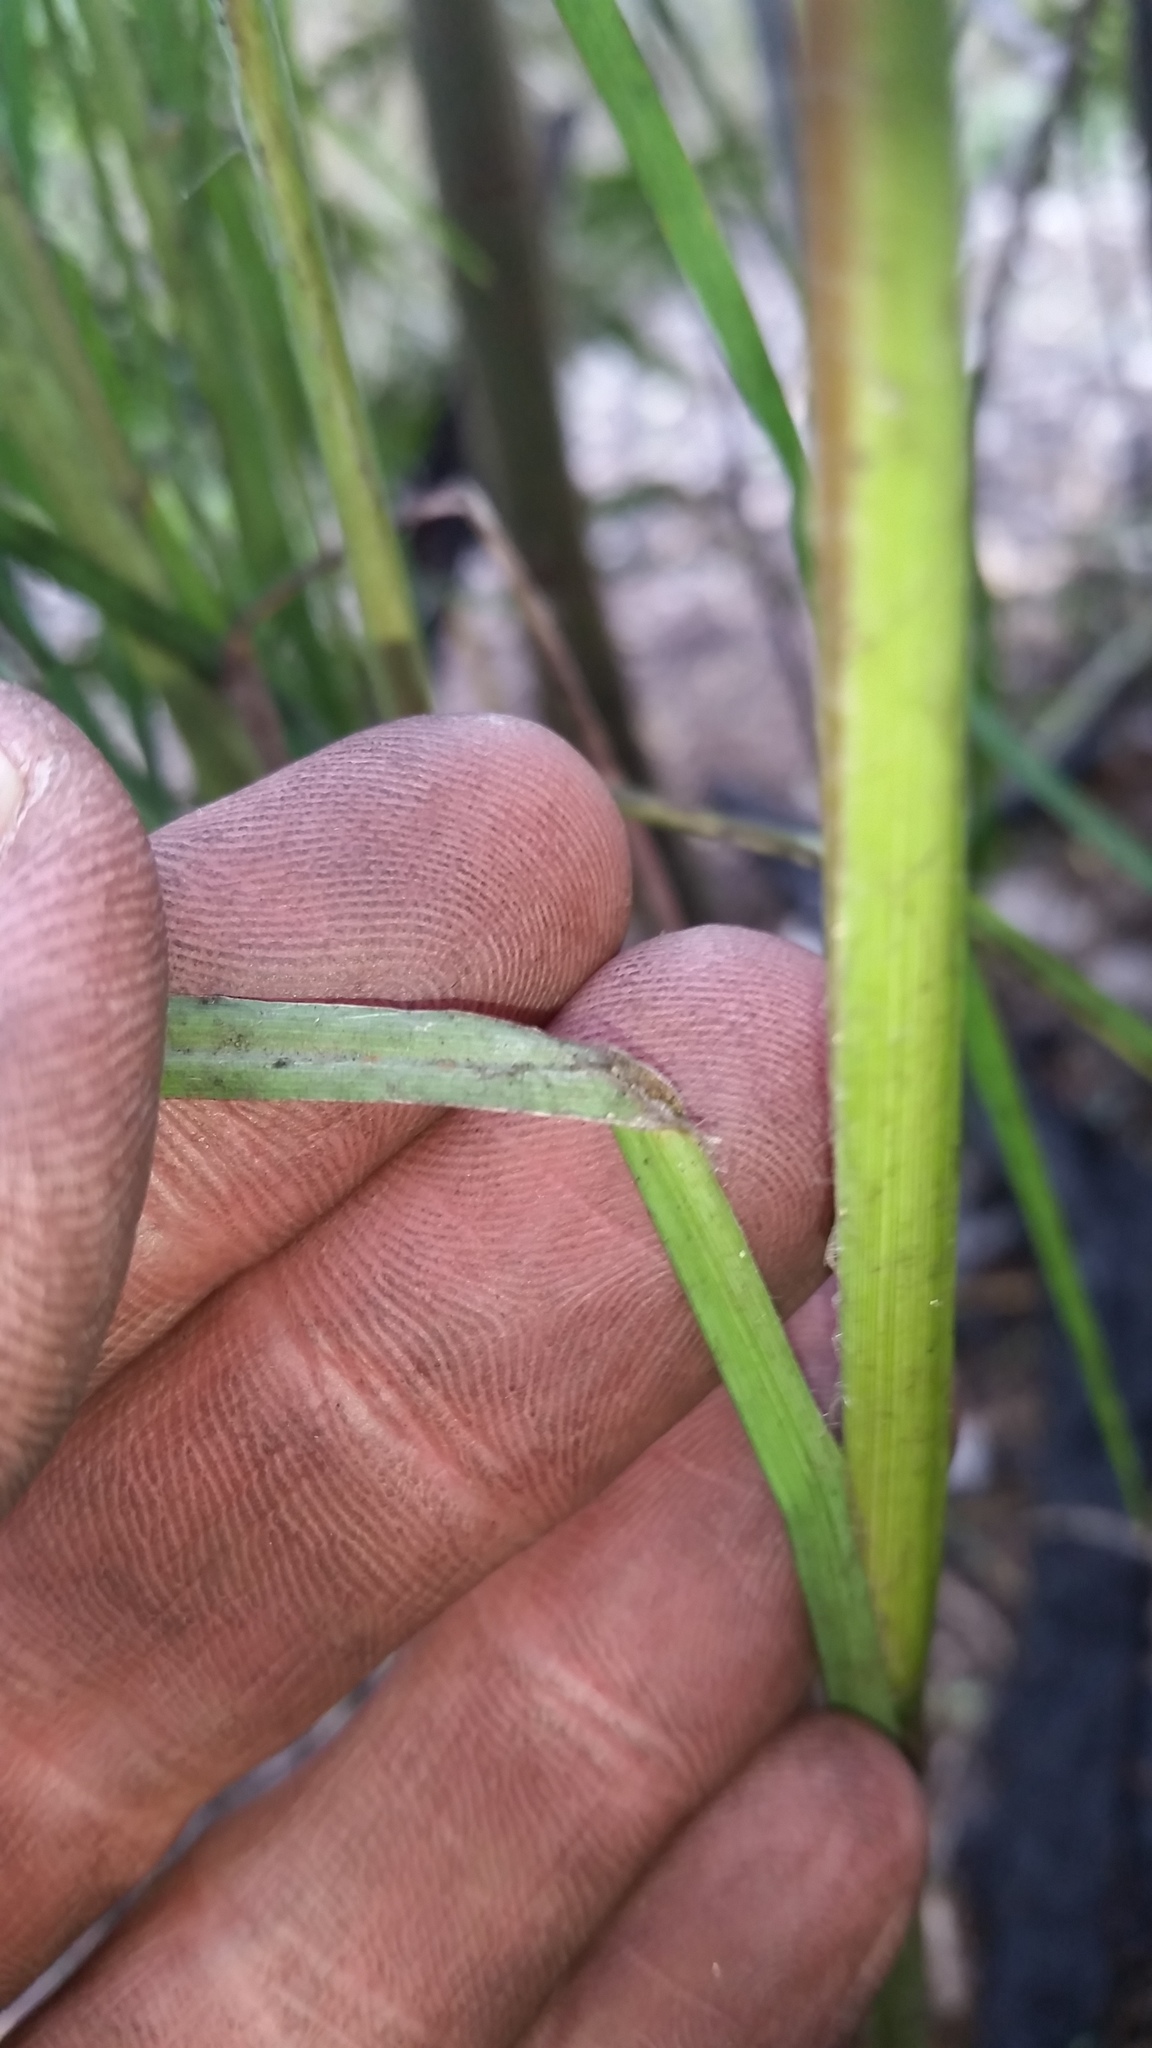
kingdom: Plantae
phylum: Tracheophyta
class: Liliopsida
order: Poales
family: Poaceae
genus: Andropogon
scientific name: Andropogon virginicus
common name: Broomsedge bluestem
